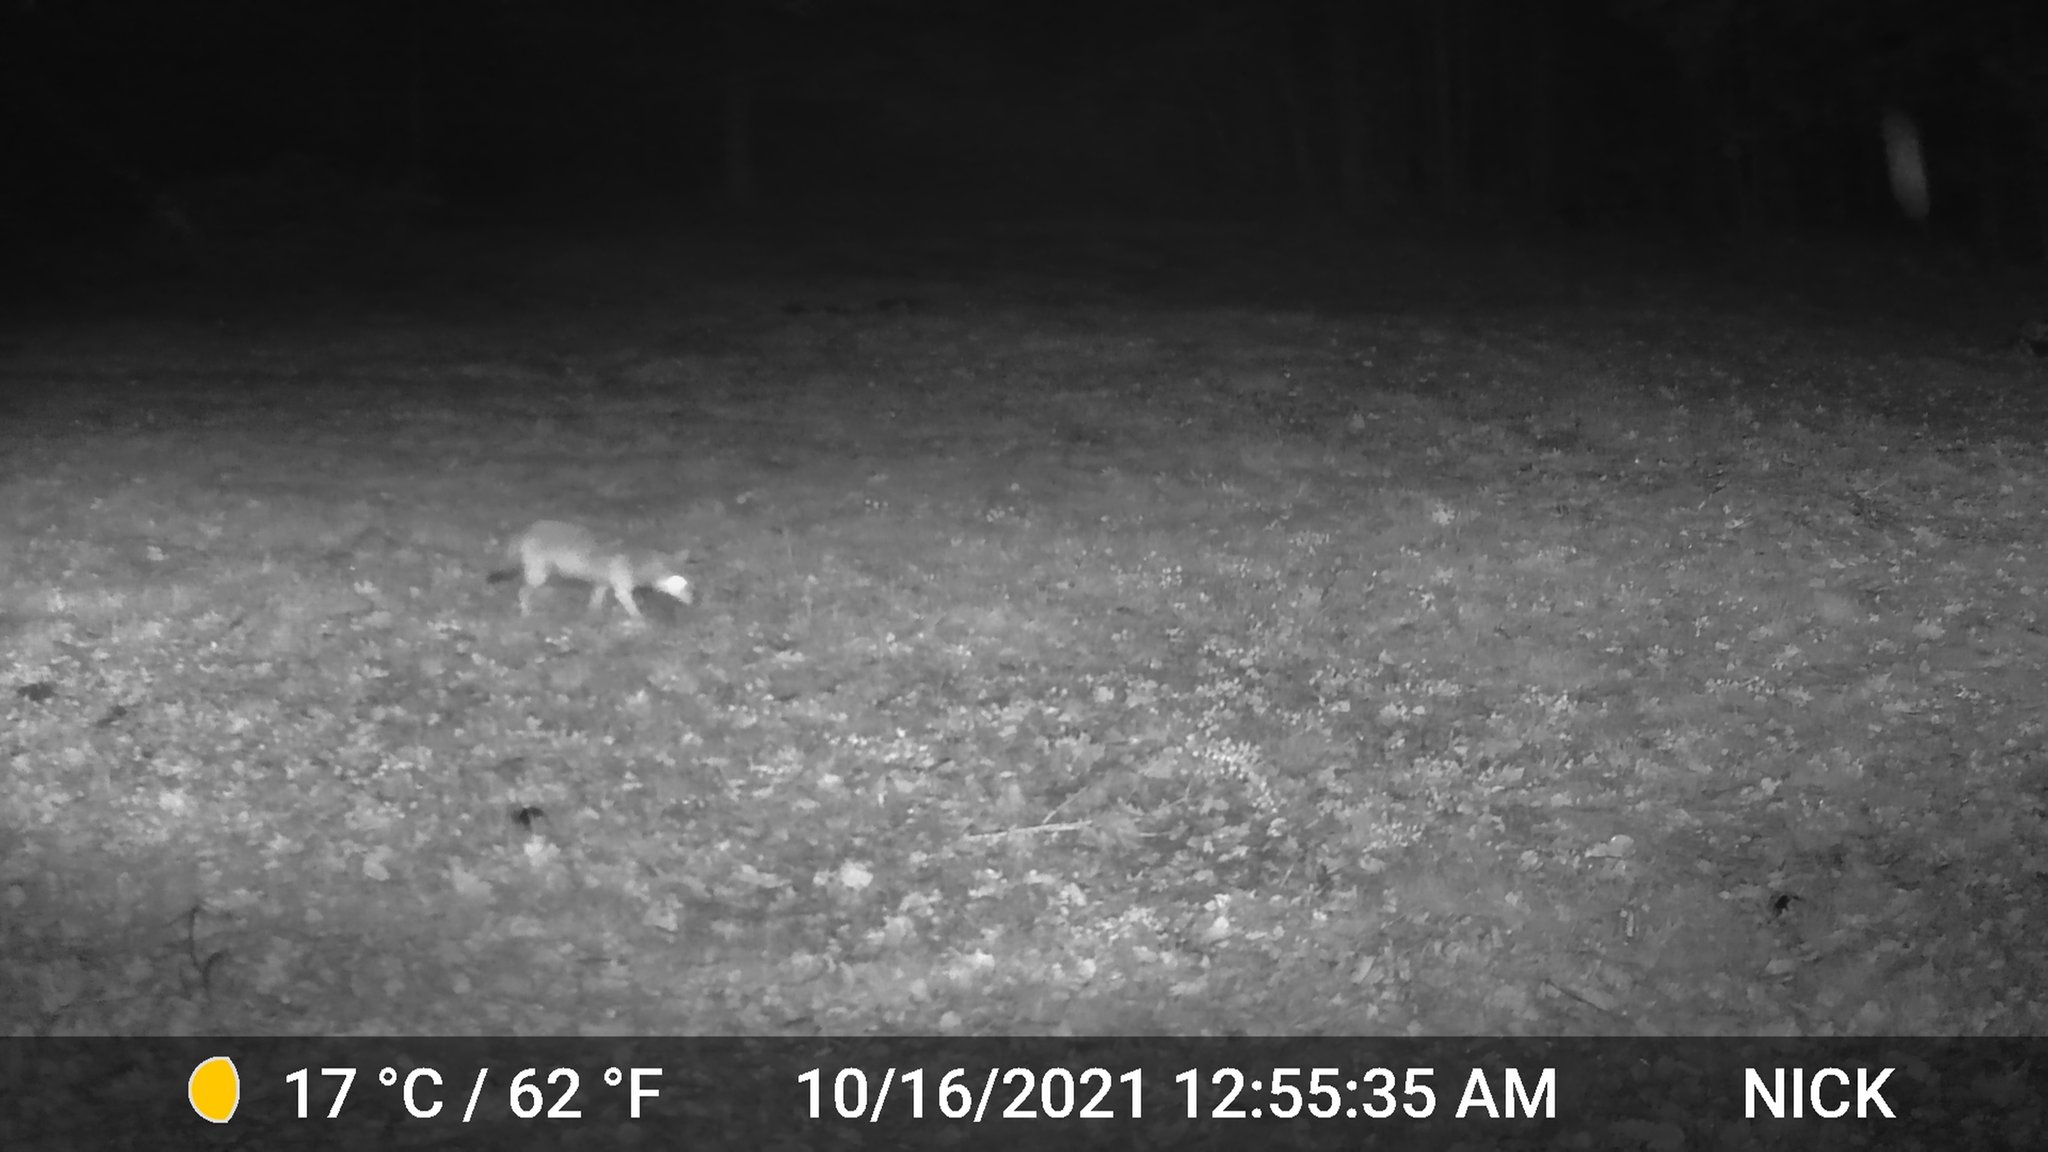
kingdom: Animalia
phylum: Chordata
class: Mammalia
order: Carnivora
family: Canidae
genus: Canis
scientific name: Canis latrans
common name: Coyote
